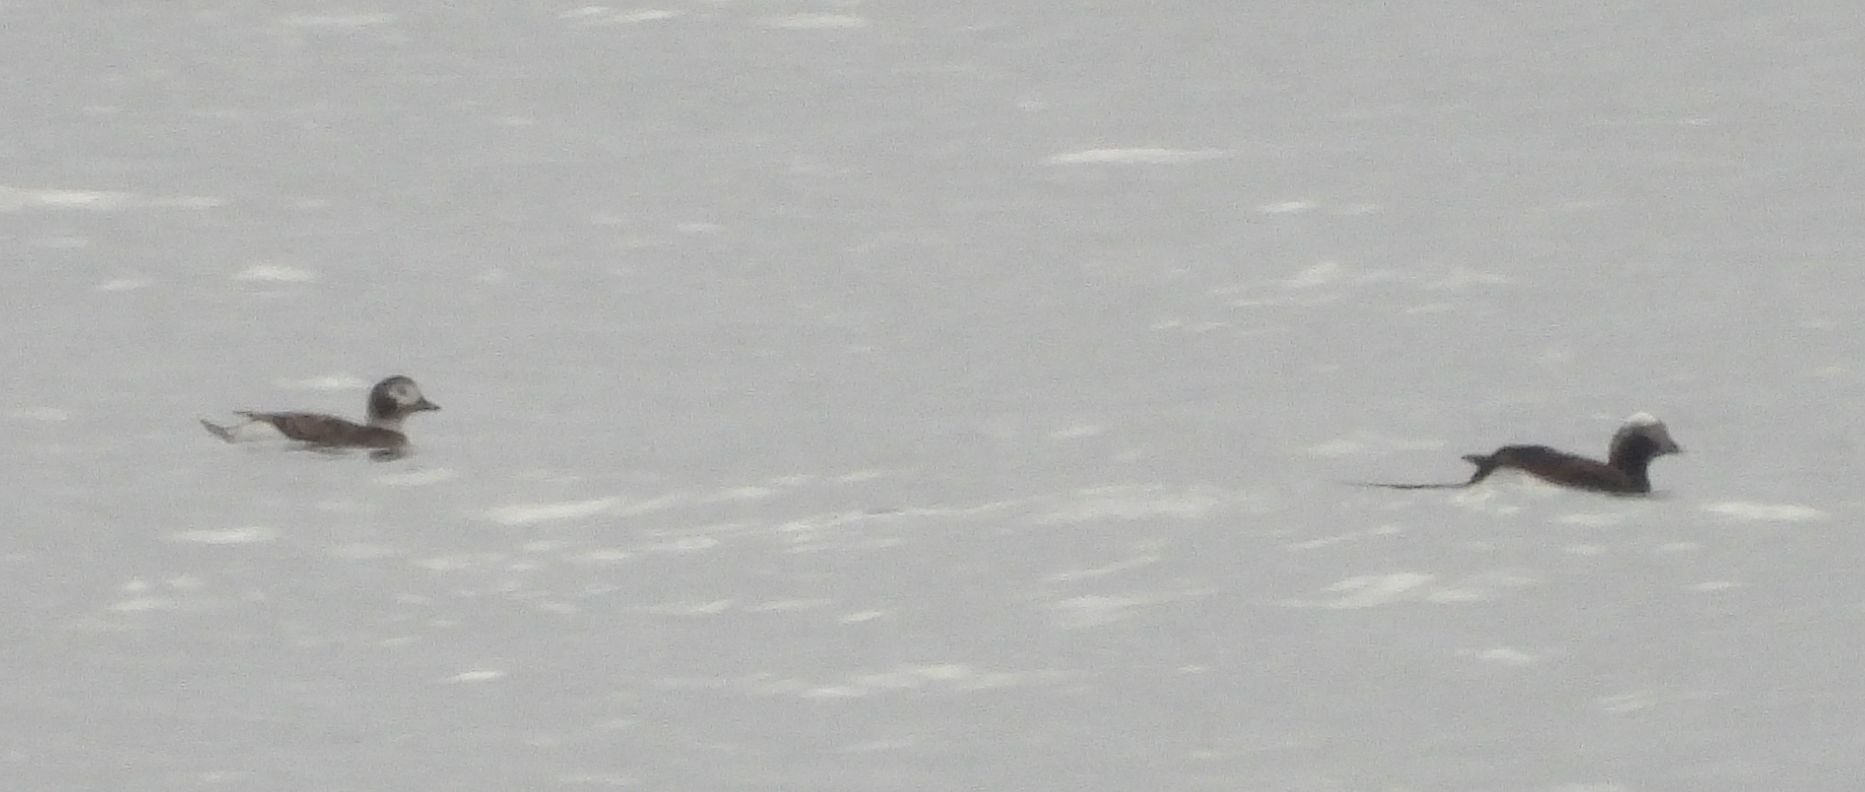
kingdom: Animalia
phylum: Chordata
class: Aves
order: Anseriformes
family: Anatidae
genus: Clangula
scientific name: Clangula hyemalis
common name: Long-tailed duck
